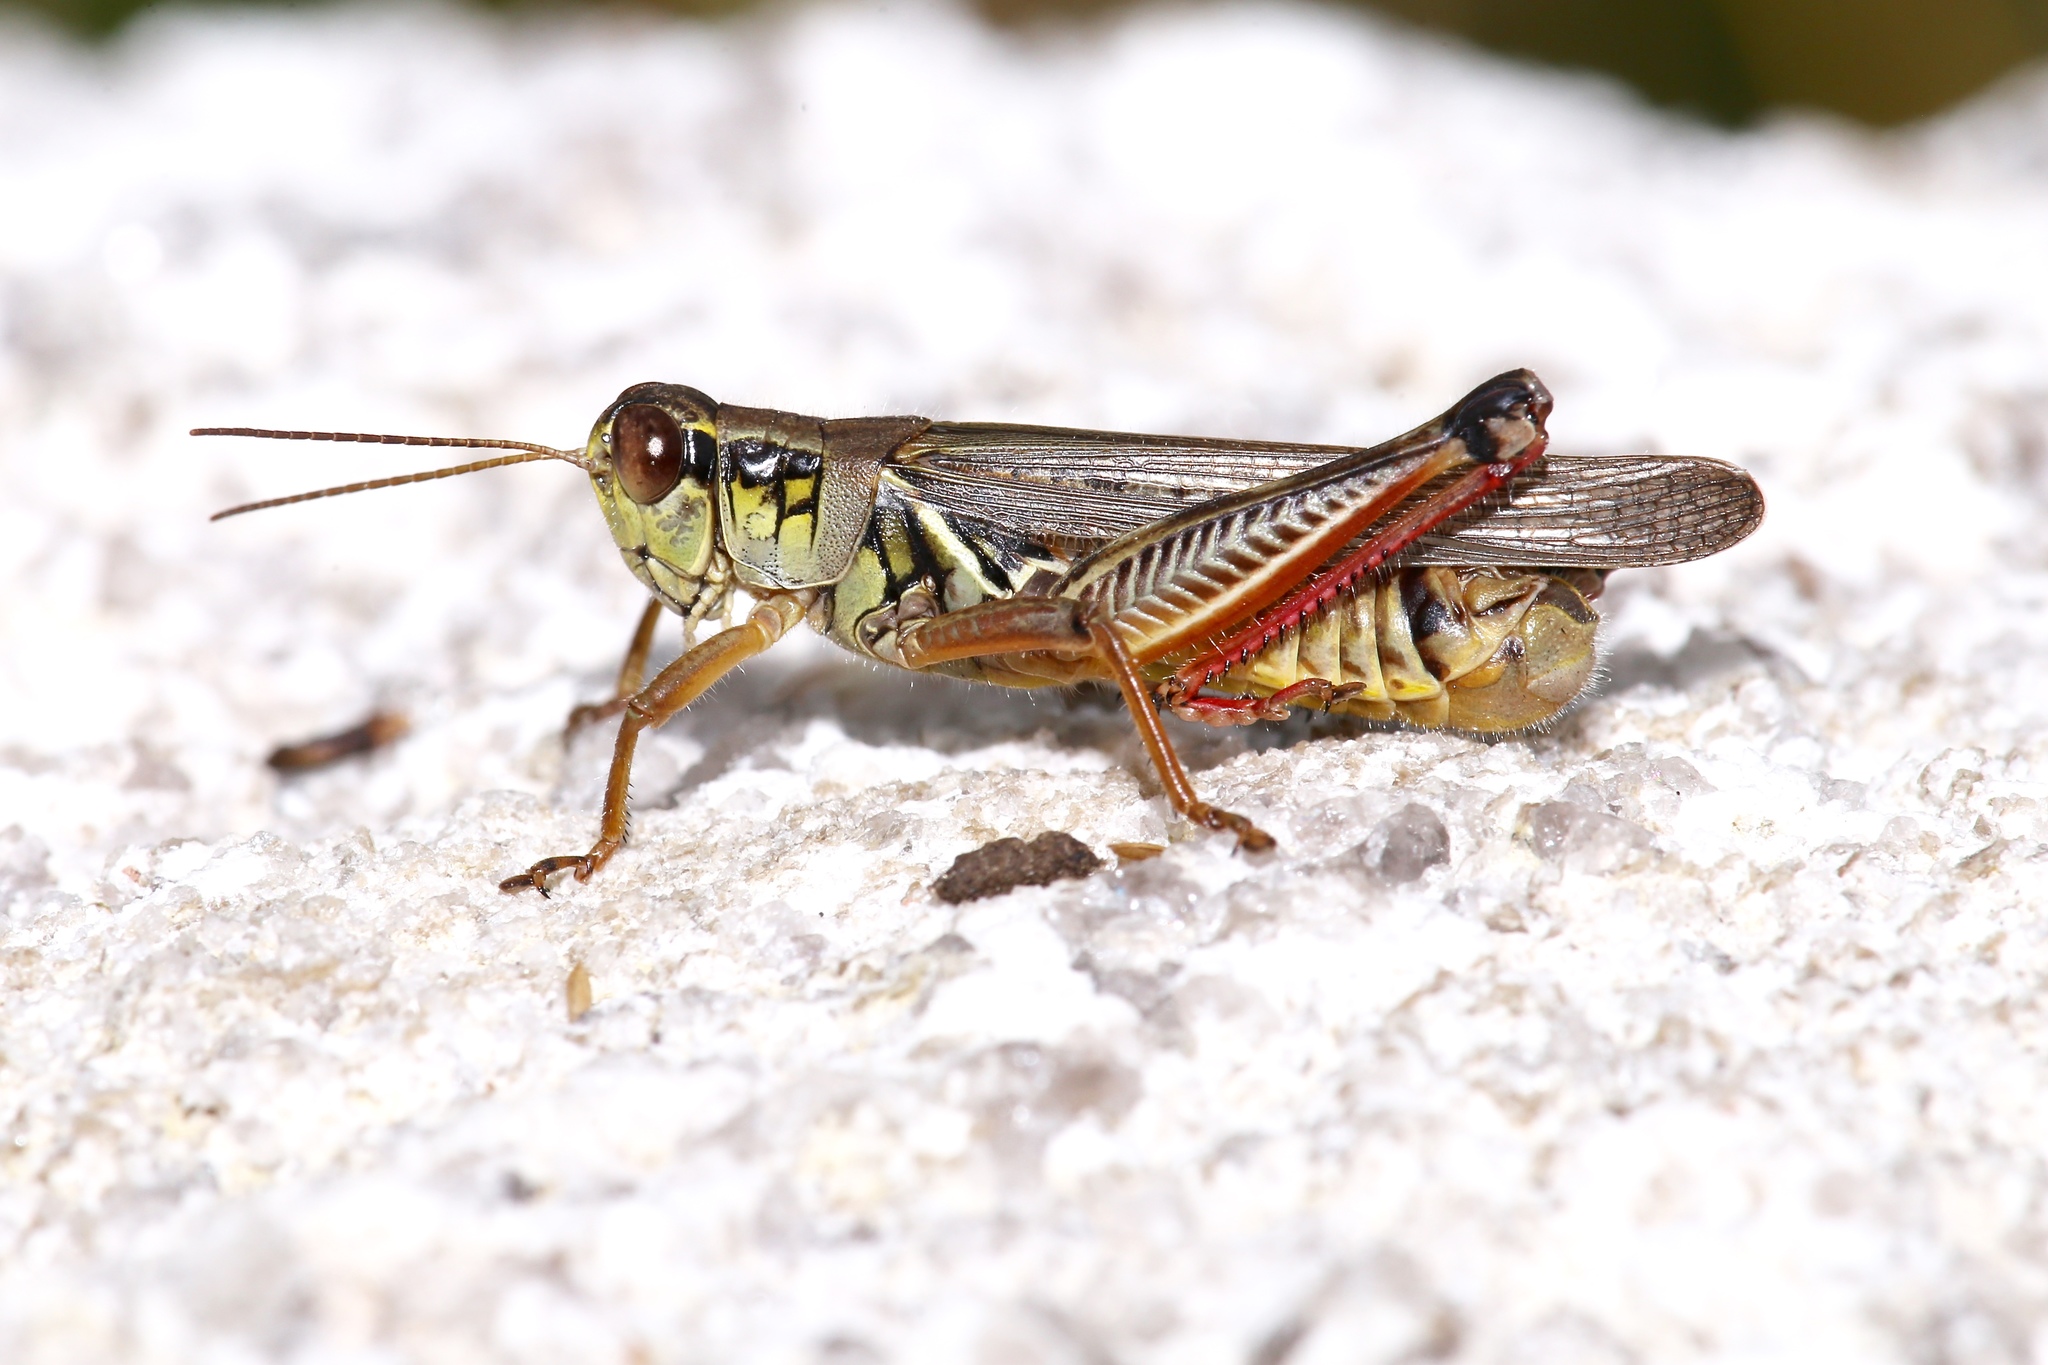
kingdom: Animalia
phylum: Arthropoda
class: Insecta
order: Orthoptera
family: Acrididae
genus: Melanoplus
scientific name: Melanoplus femurrubrum
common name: Red-legged grasshopper
